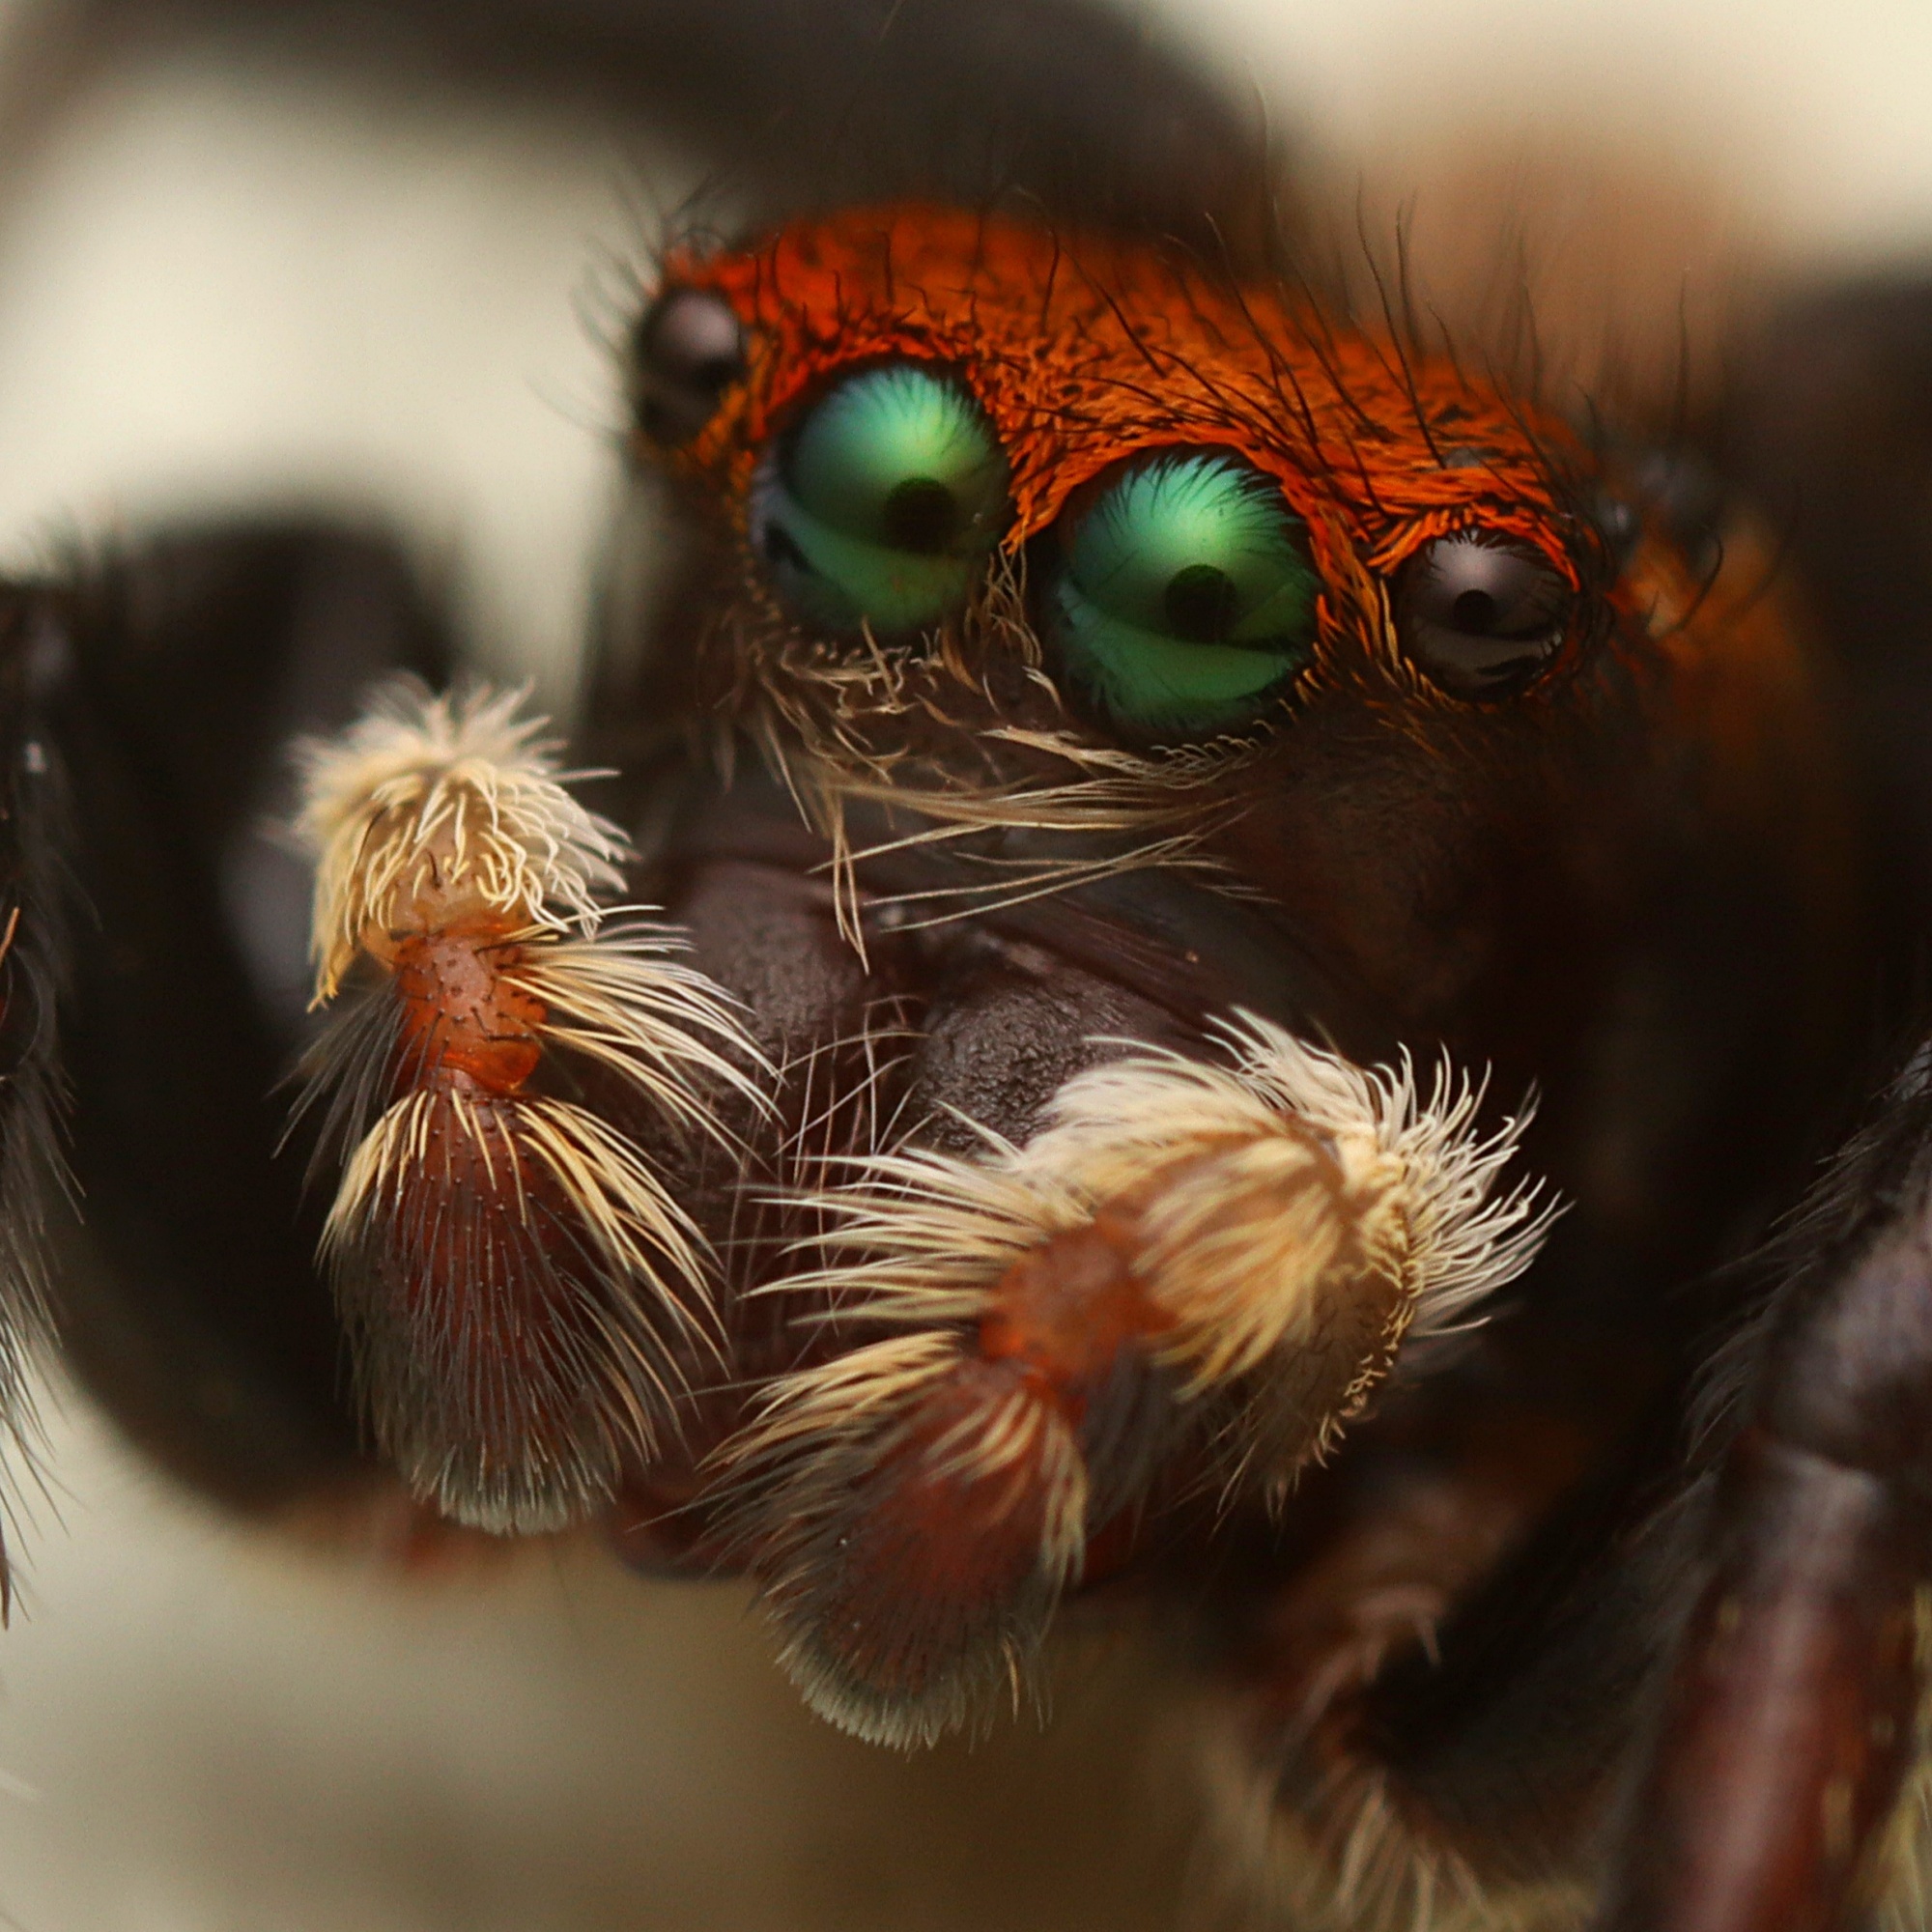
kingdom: Animalia
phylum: Arthropoda
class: Arachnida
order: Araneae
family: Salticidae
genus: Maratus
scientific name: Maratus griseus
